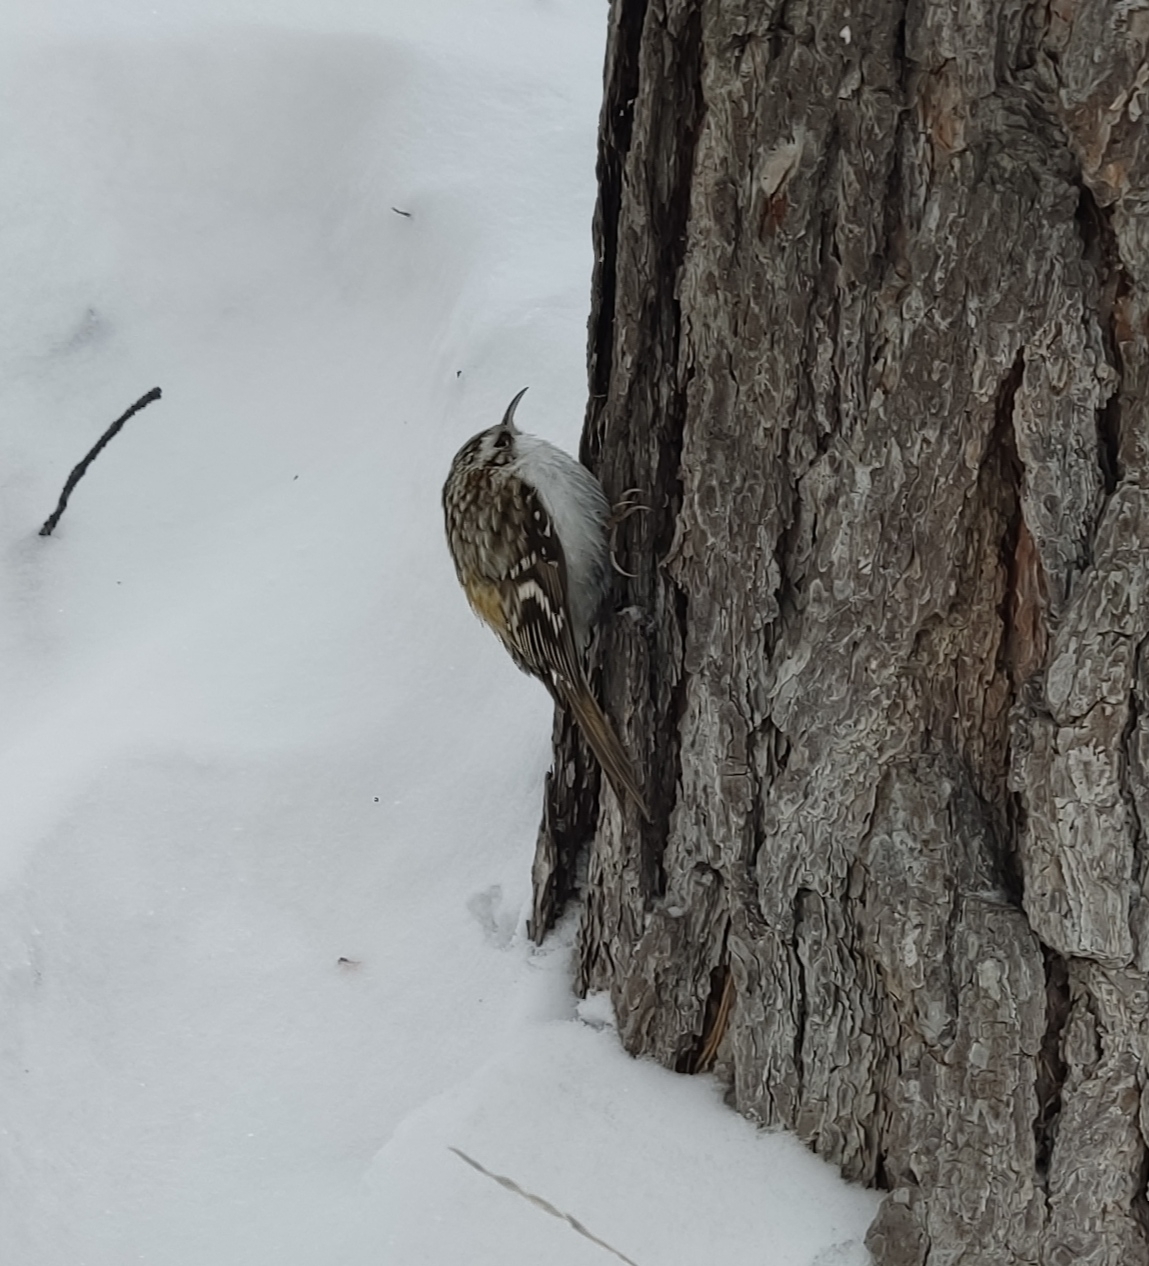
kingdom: Animalia
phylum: Chordata
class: Aves
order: Passeriformes
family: Certhiidae
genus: Certhia
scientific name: Certhia familiaris
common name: Eurasian treecreeper
